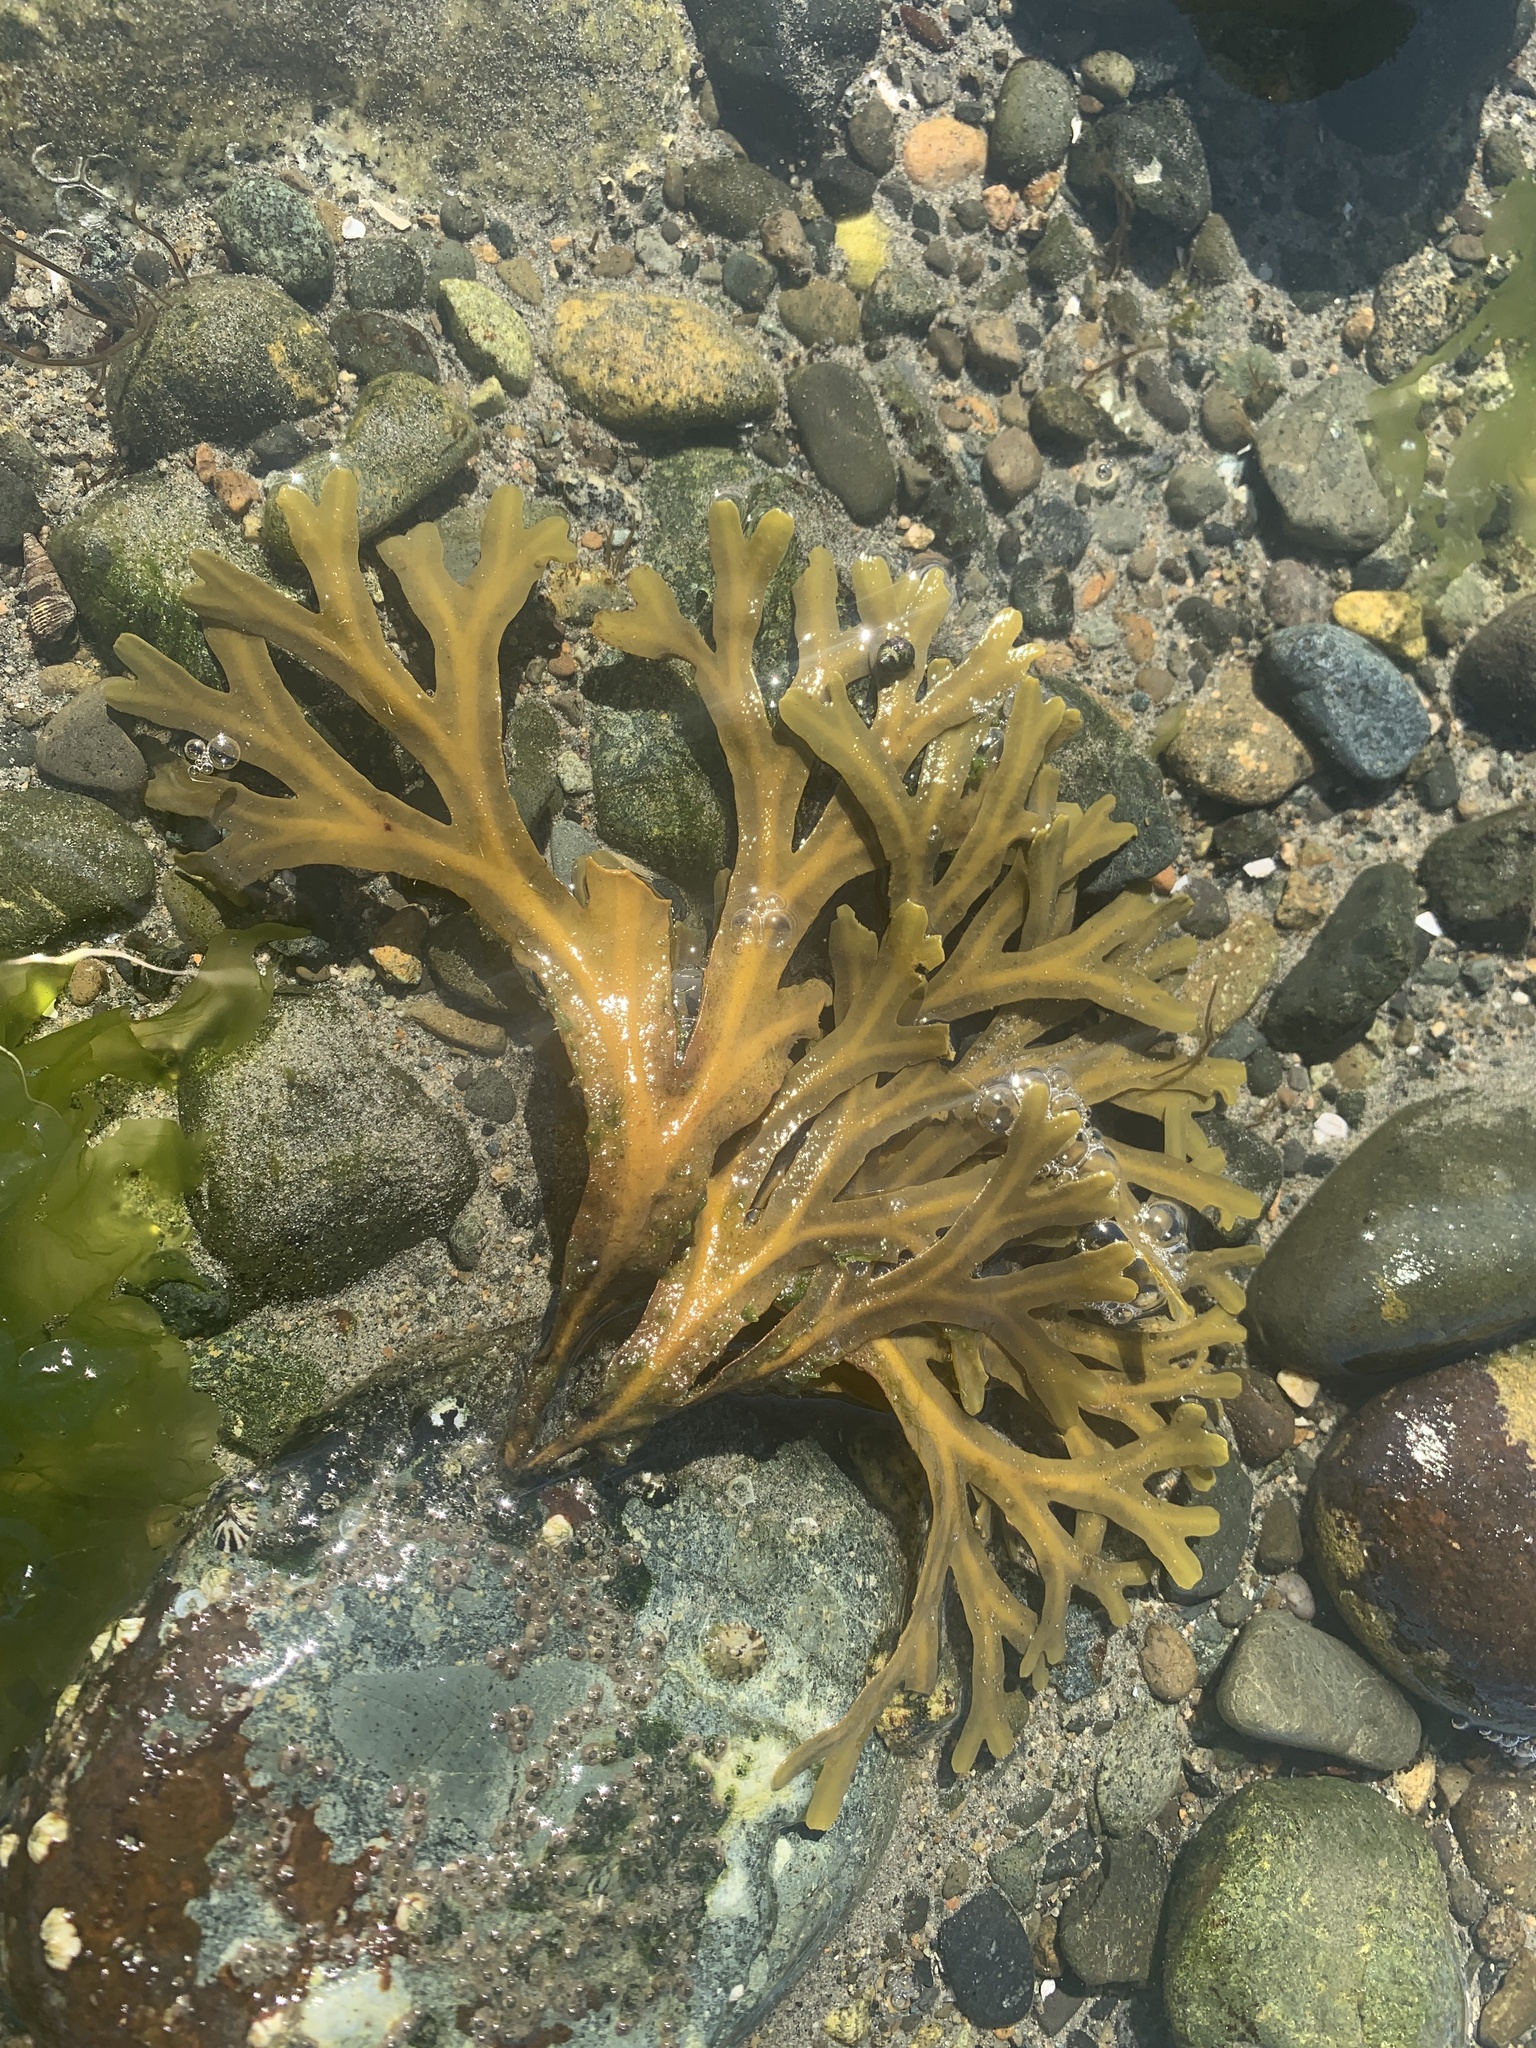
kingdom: Chromista
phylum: Ochrophyta
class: Phaeophyceae
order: Fucales
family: Fucaceae
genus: Fucus
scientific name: Fucus distichus
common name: Rockweed
